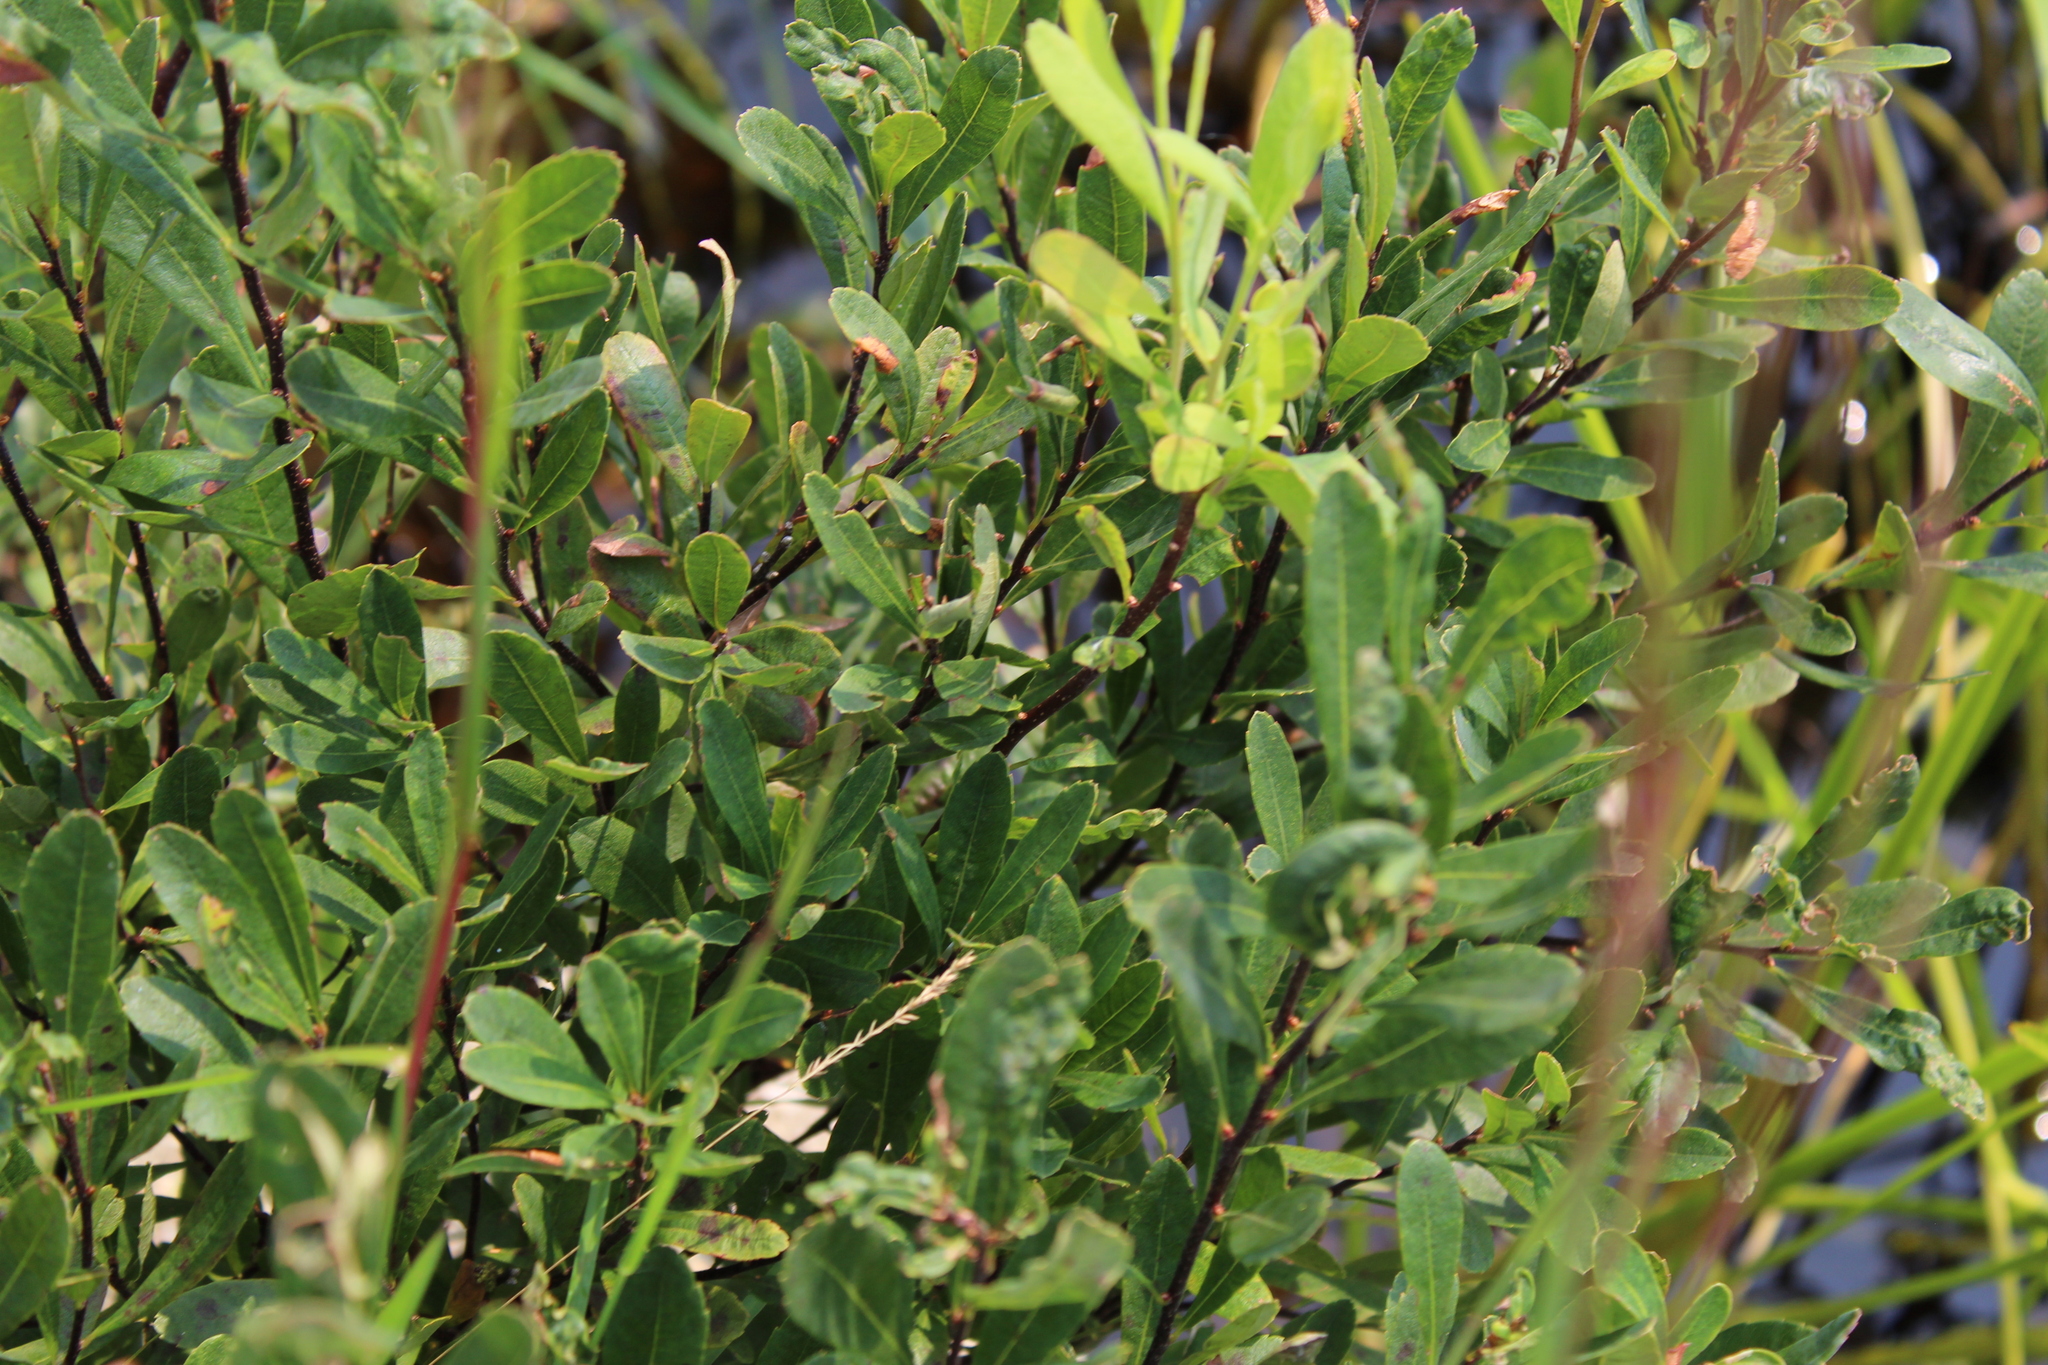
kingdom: Plantae
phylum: Tracheophyta
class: Magnoliopsida
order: Fagales
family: Myricaceae
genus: Myrica
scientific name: Myrica gale
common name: Sweet gale
